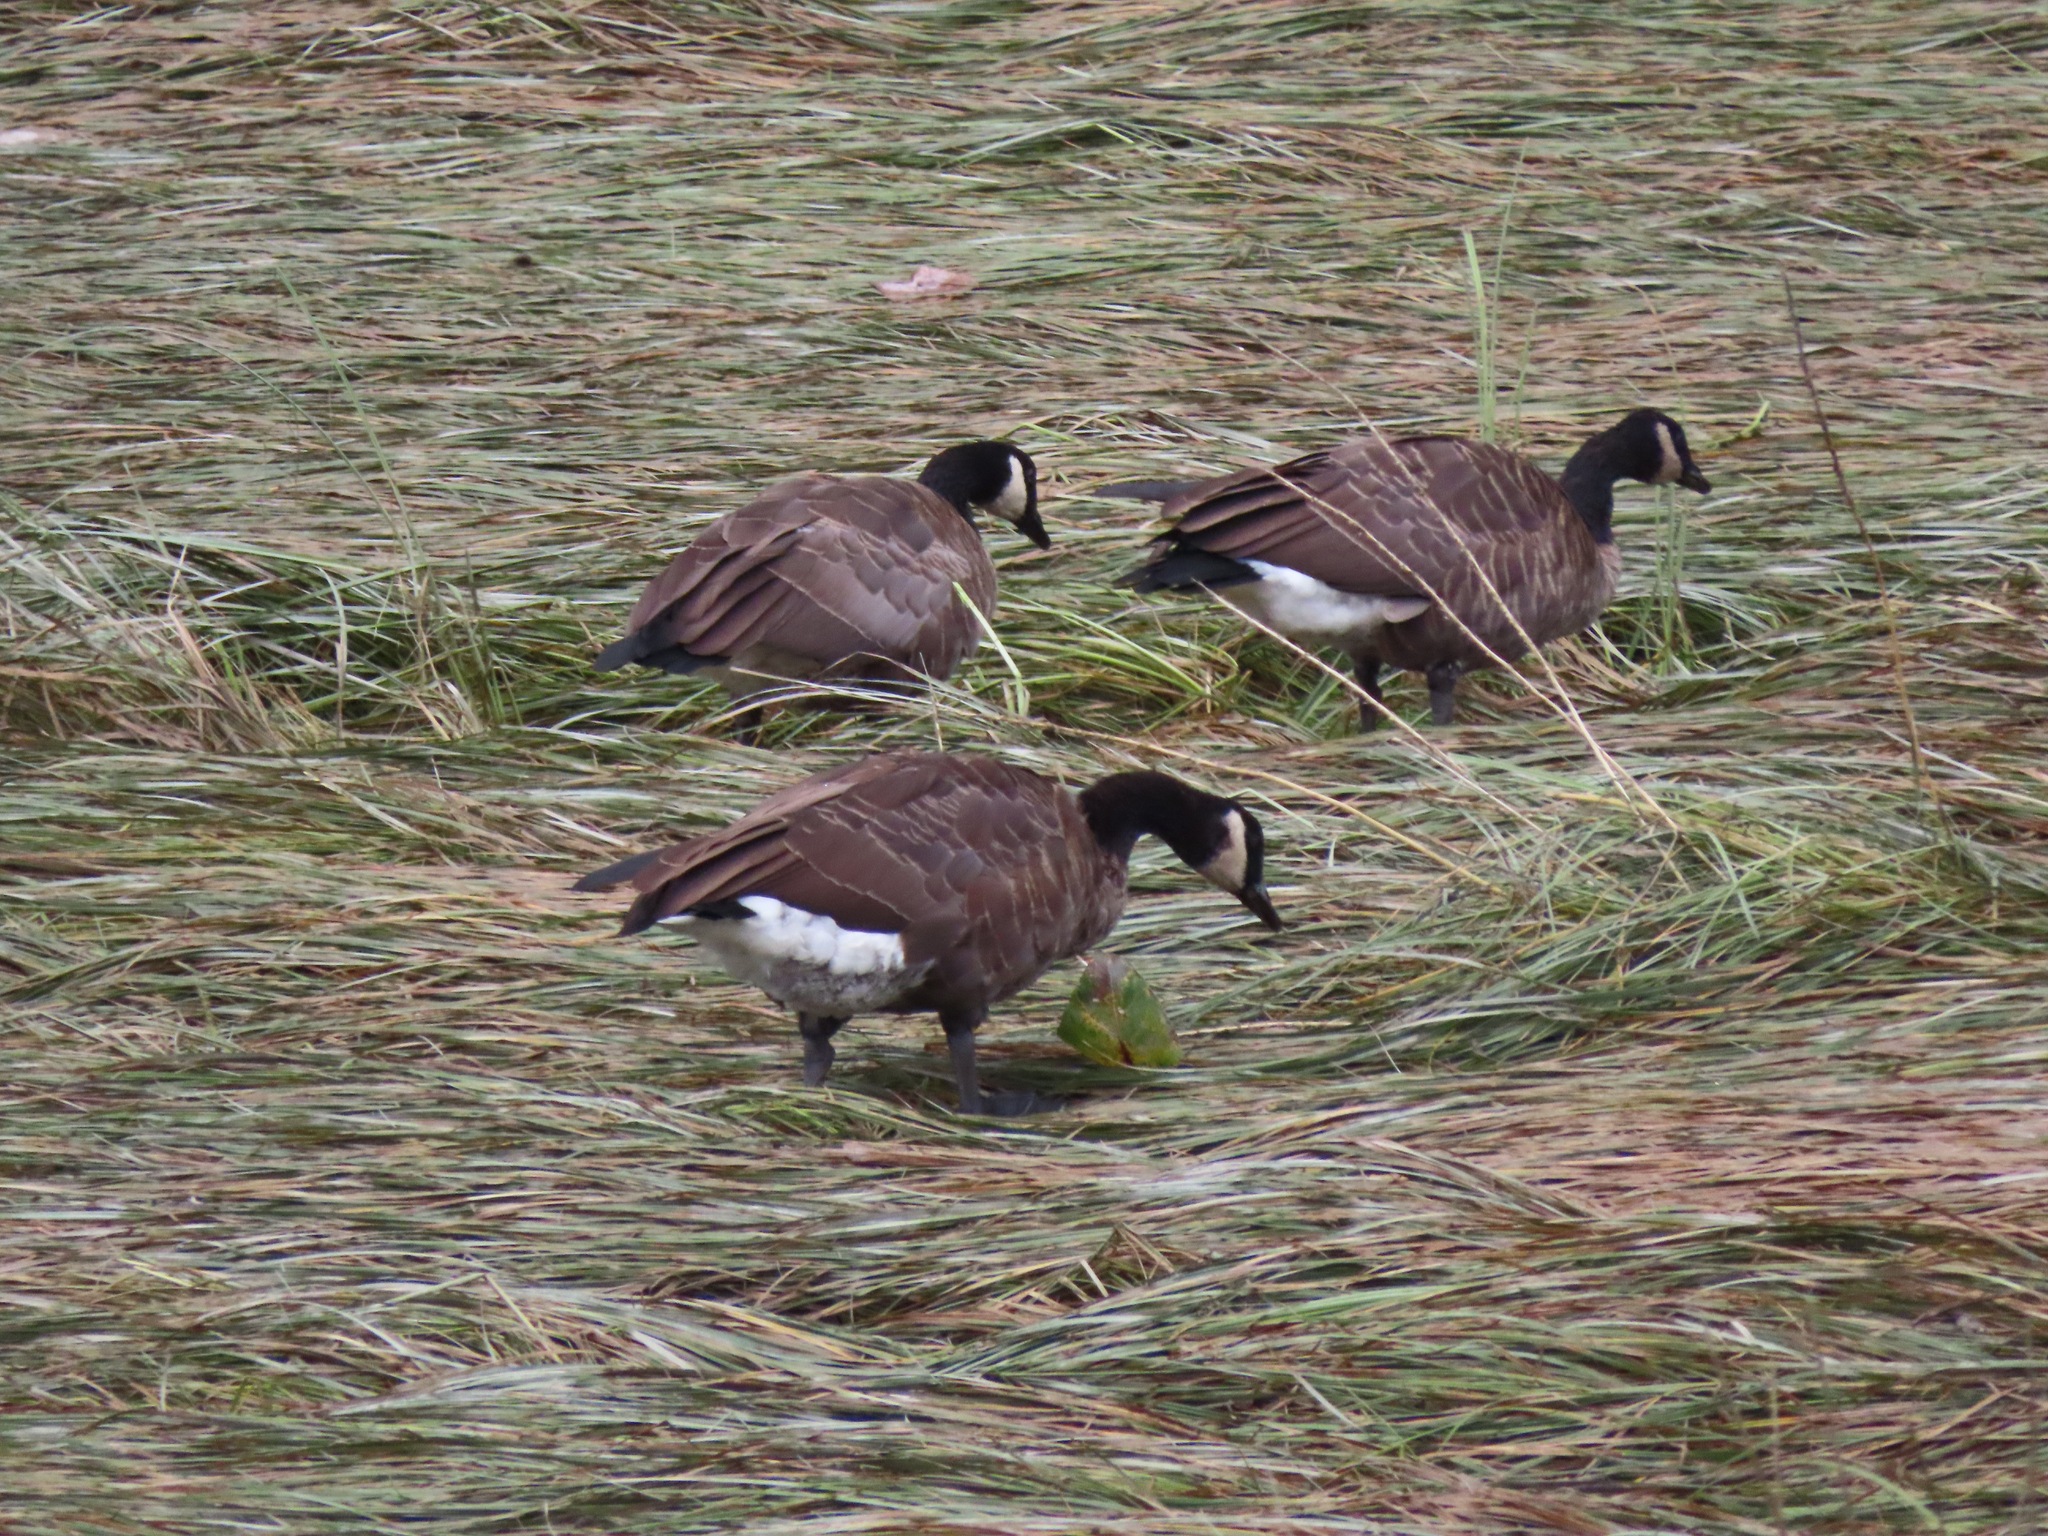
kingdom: Animalia
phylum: Chordata
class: Aves
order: Anseriformes
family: Anatidae
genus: Branta
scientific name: Branta canadensis
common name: Canada goose
